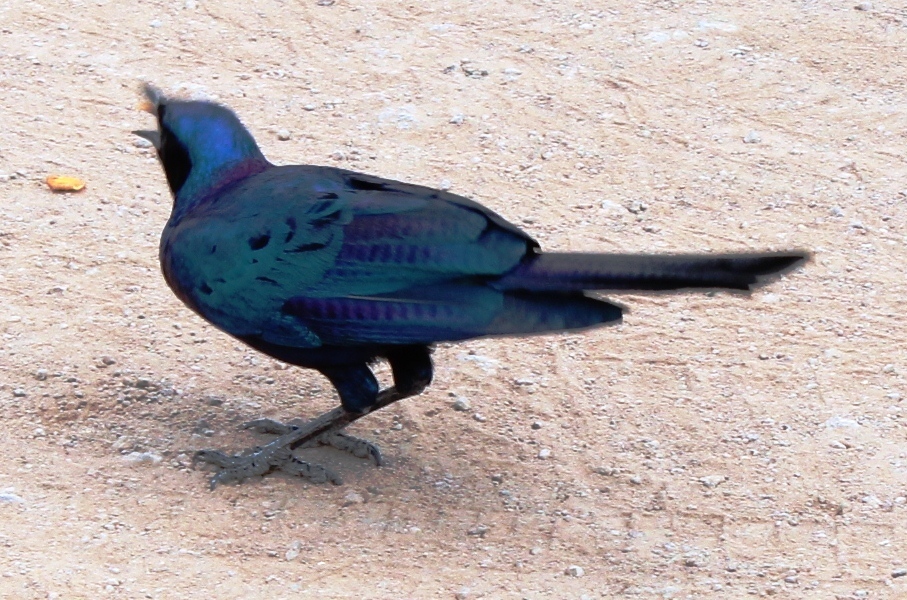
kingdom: Animalia
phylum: Chordata
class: Aves
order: Passeriformes
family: Sturnidae
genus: Lamprotornis
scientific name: Lamprotornis australis
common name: Burchell's starling
